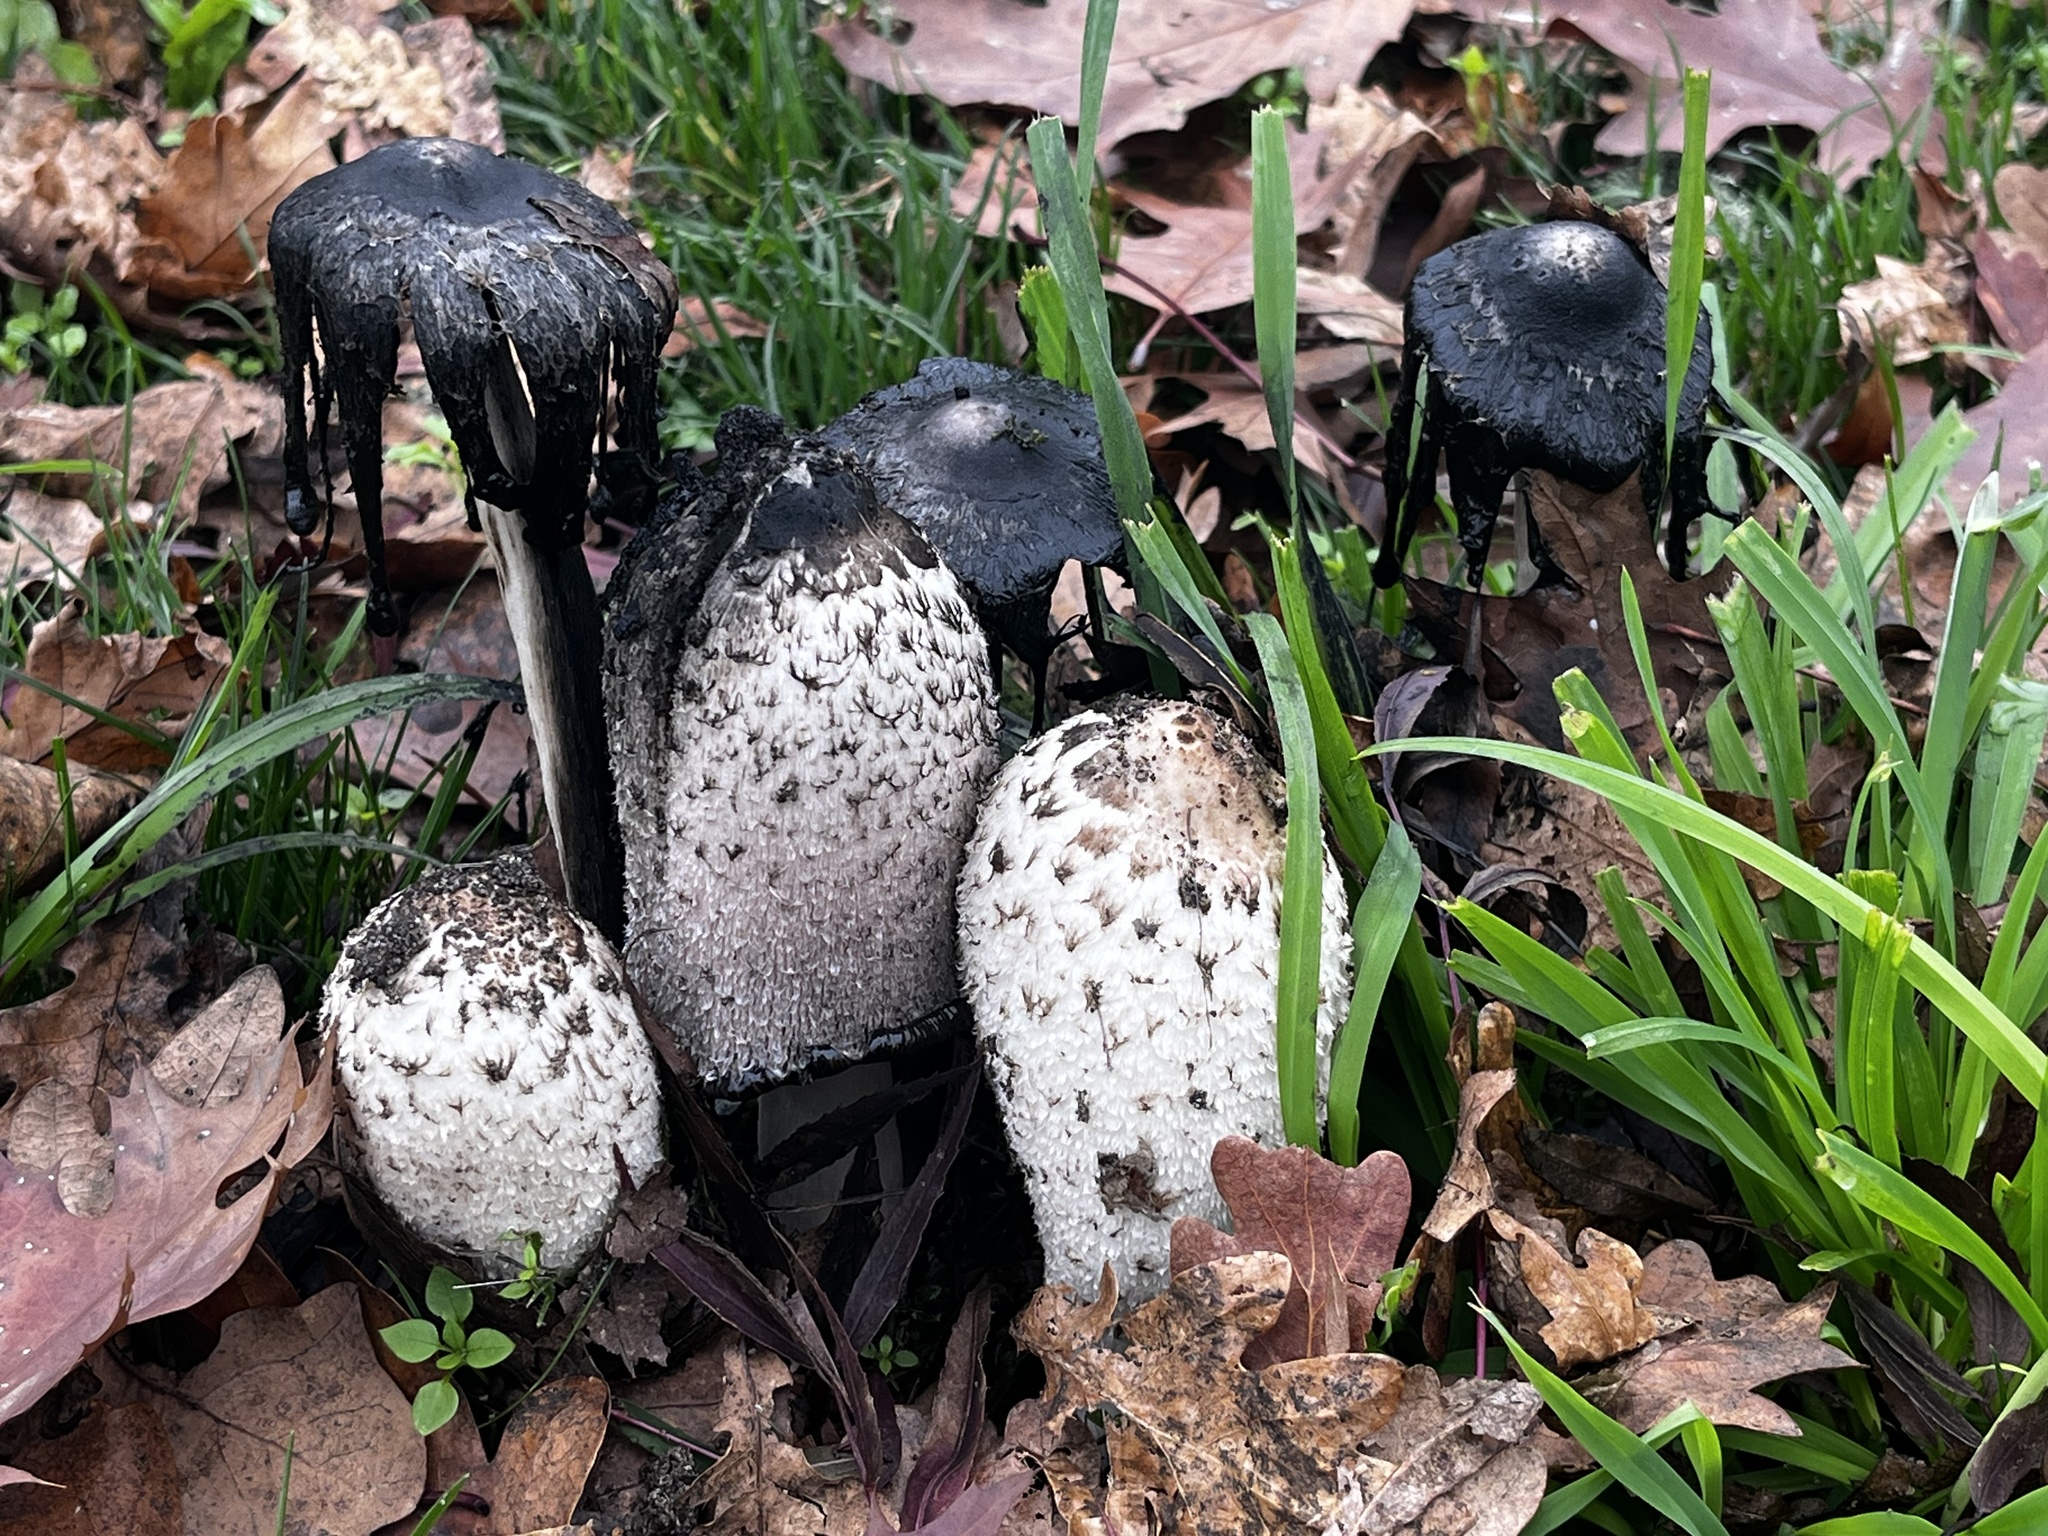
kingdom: Fungi
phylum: Basidiomycota
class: Agaricomycetes
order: Agaricales
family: Agaricaceae
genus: Coprinus
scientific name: Coprinus comatus
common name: Lawyer's wig
